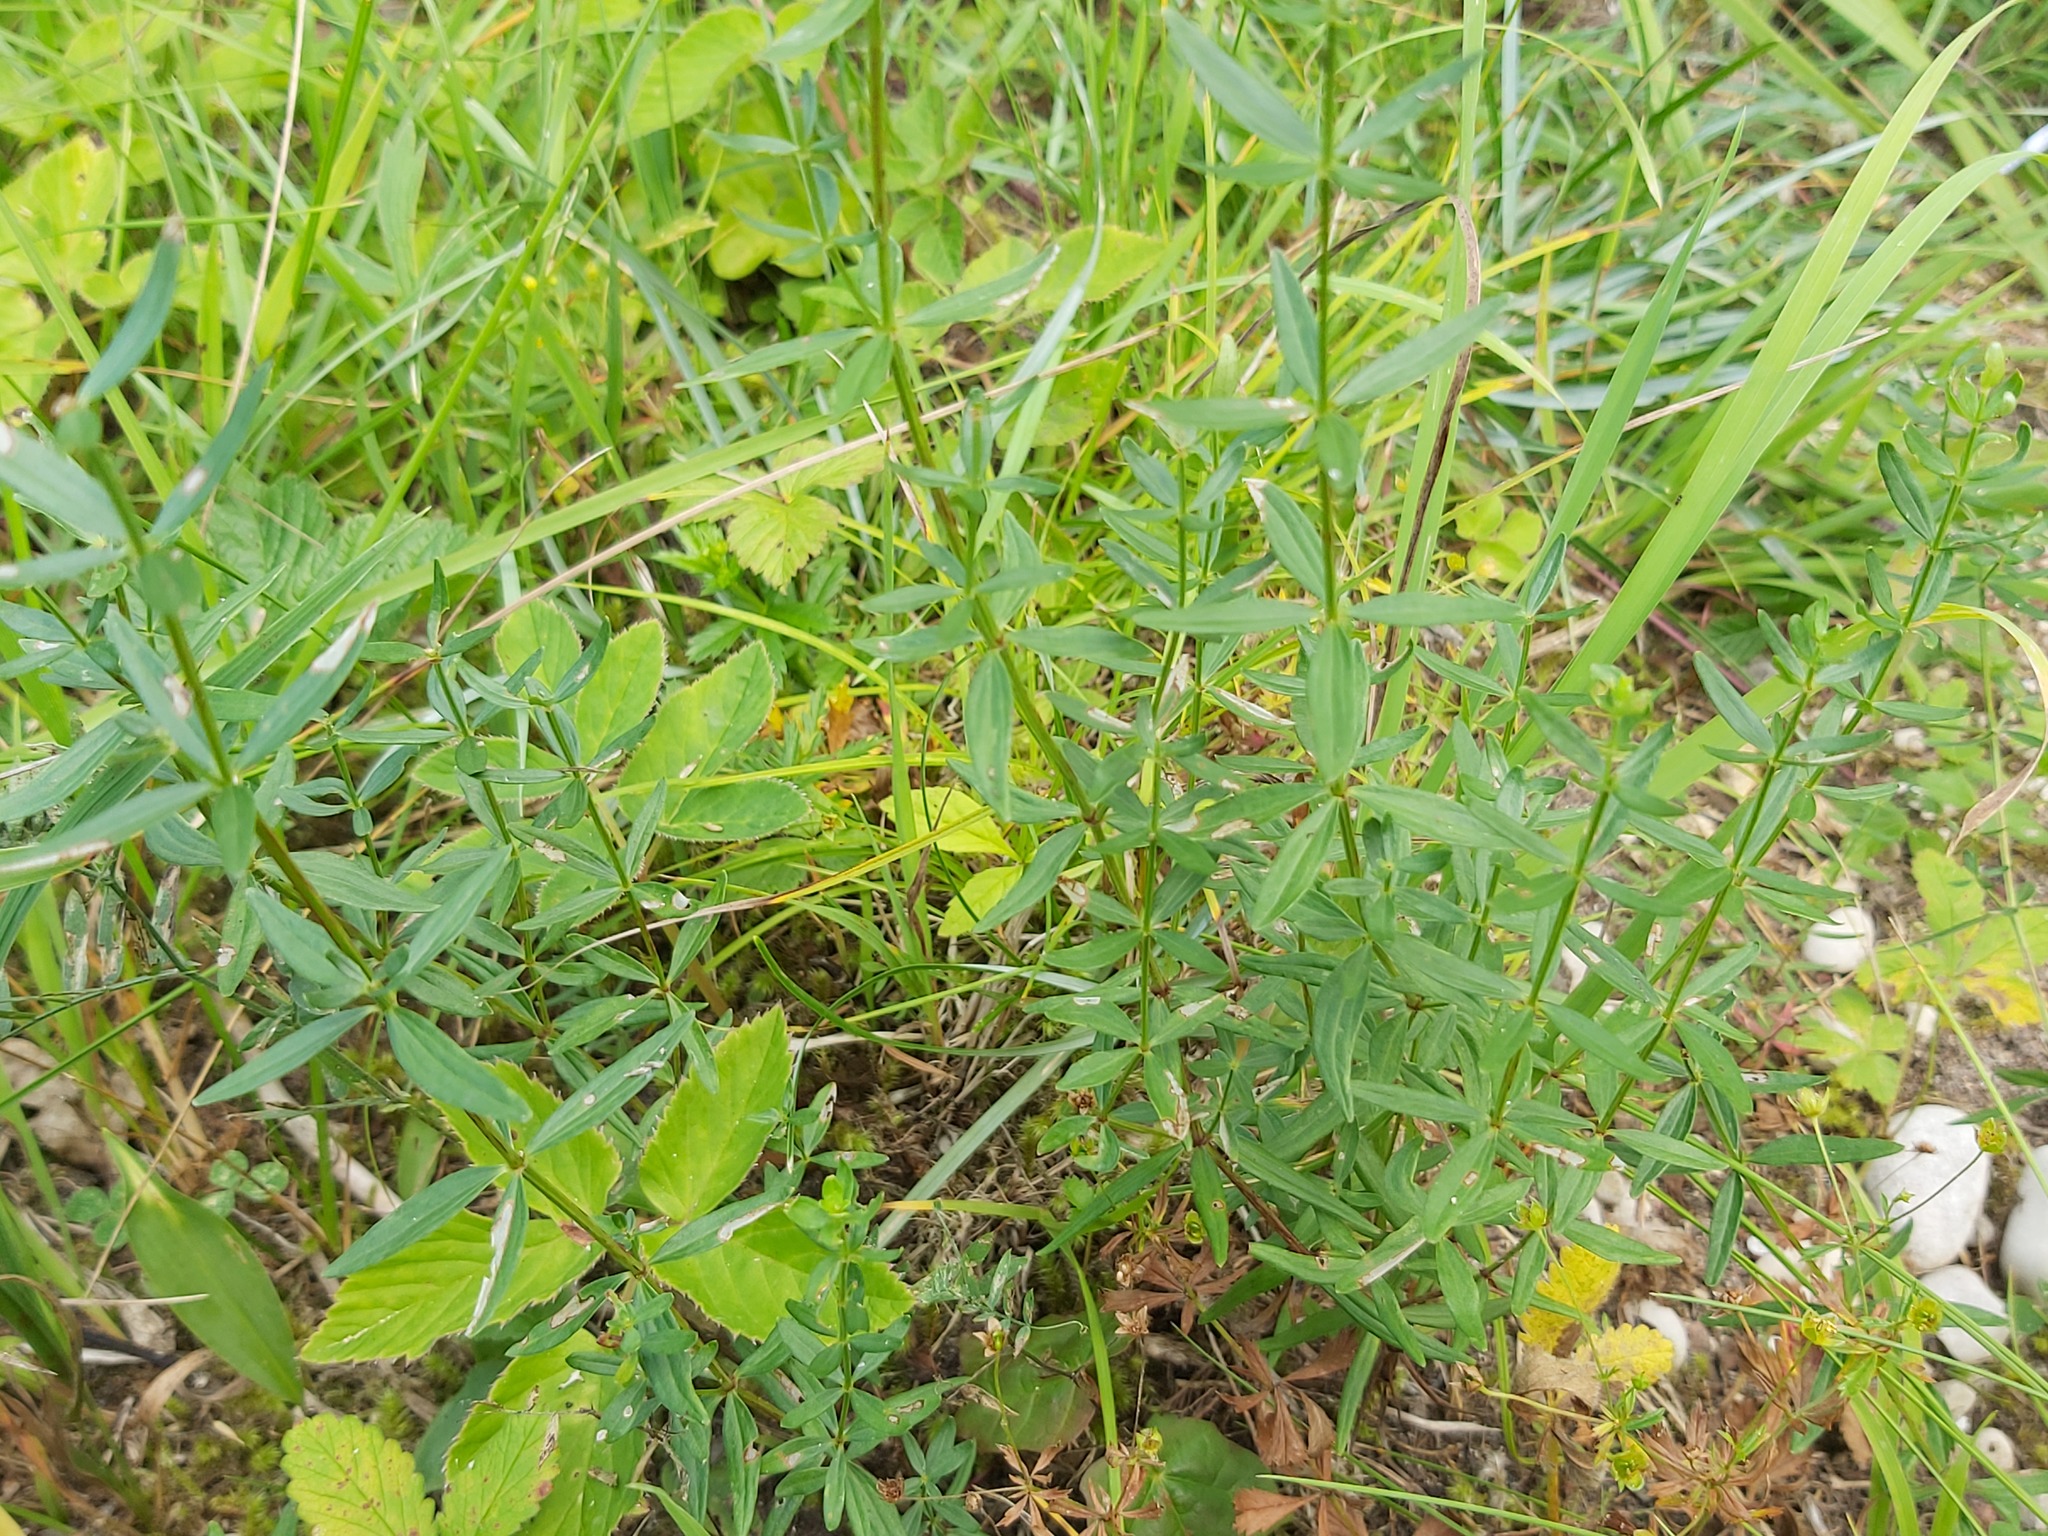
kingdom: Plantae
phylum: Tracheophyta
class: Magnoliopsida
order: Gentianales
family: Rubiaceae
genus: Galium
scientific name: Galium boreale
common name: Northern bedstraw
